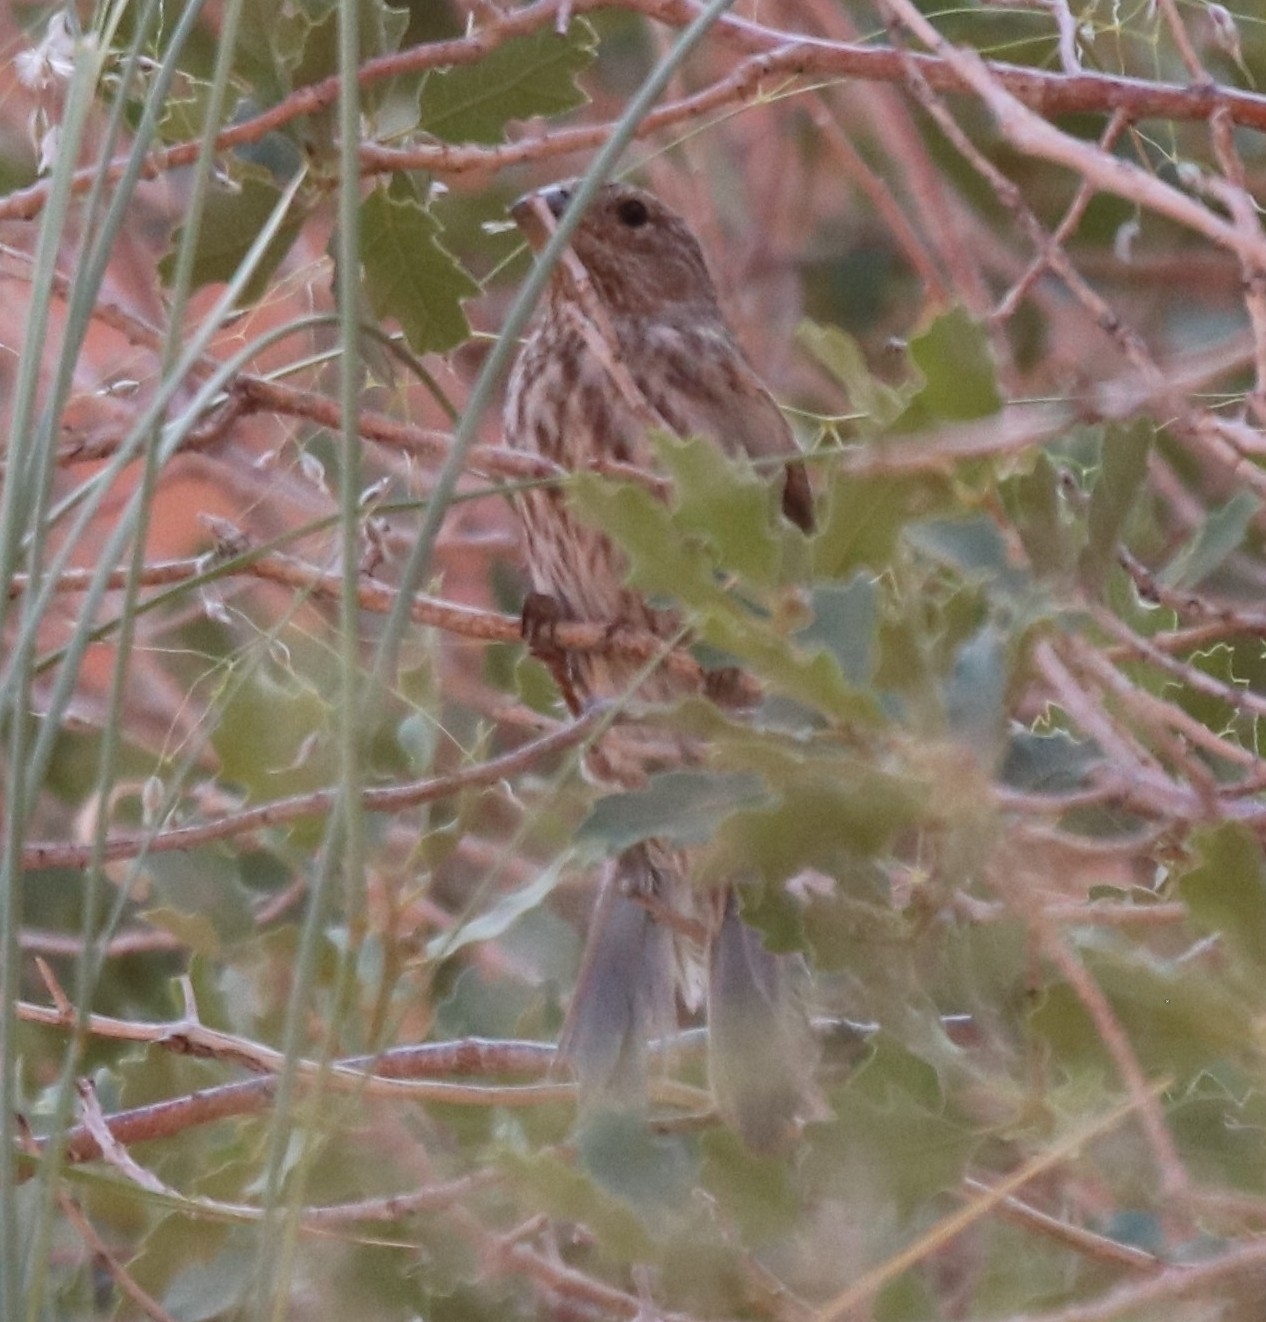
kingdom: Animalia
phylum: Chordata
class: Aves
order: Passeriformes
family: Fringillidae
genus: Haemorhous
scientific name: Haemorhous mexicanus
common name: House finch
